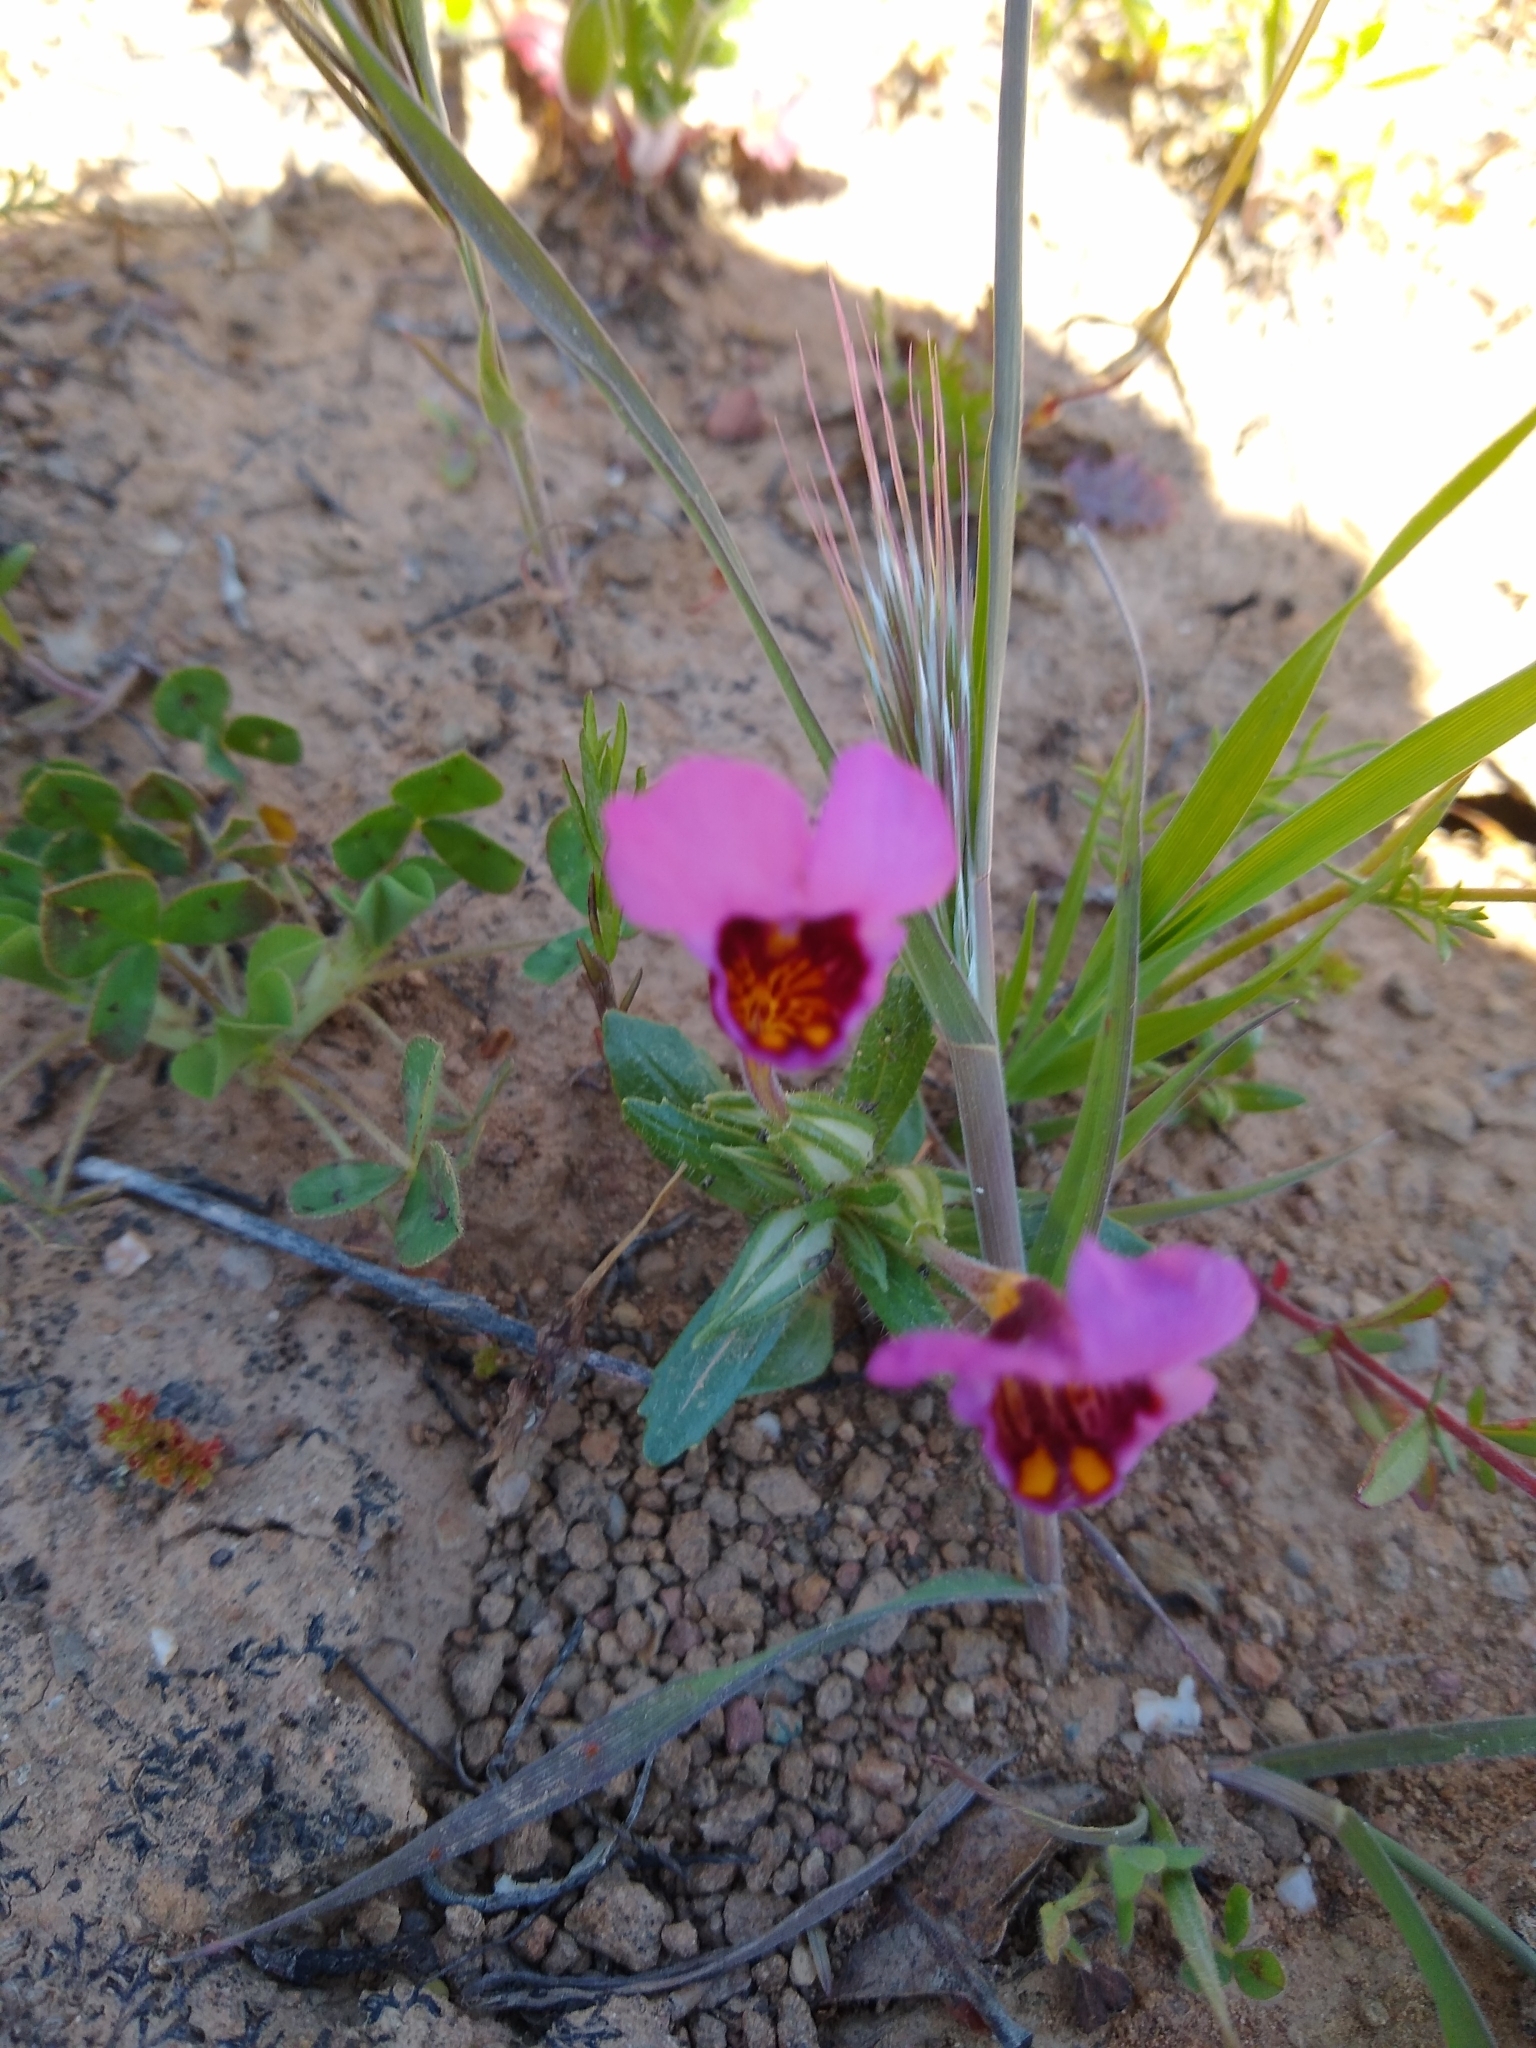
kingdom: Plantae
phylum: Tracheophyta
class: Magnoliopsida
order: Lamiales
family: Phrymaceae
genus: Diplacus
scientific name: Diplacus douglasii
